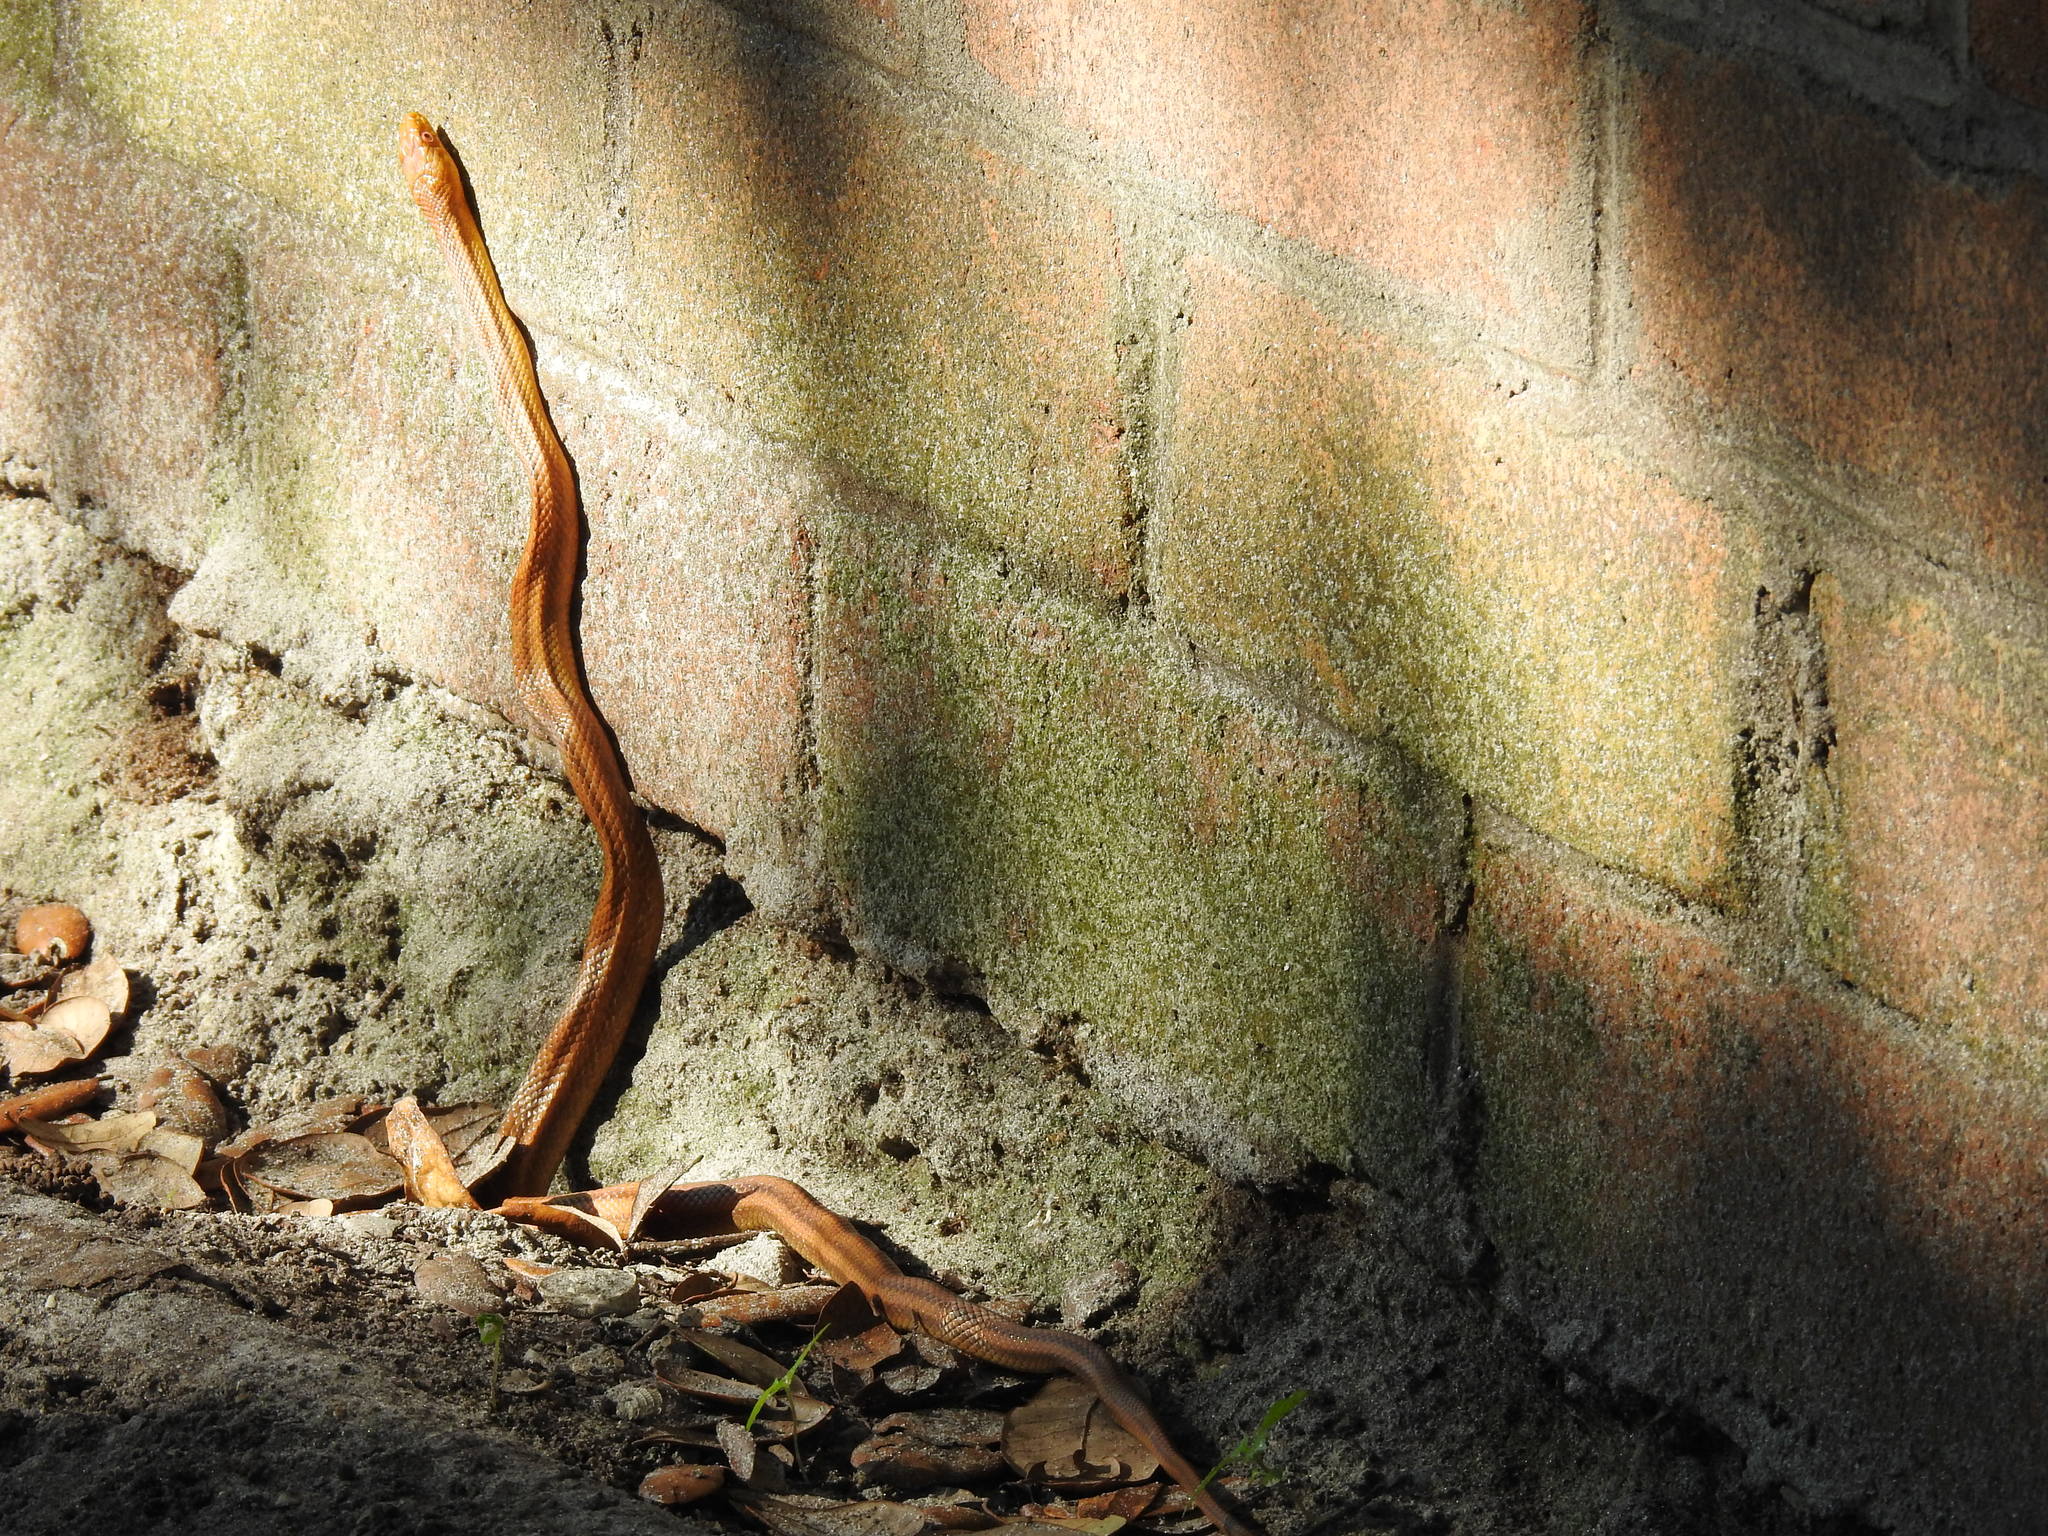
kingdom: Animalia
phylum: Chordata
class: Squamata
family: Colubridae
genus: Pantherophis
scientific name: Pantherophis alleghaniensis
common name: Eastern rat snake
